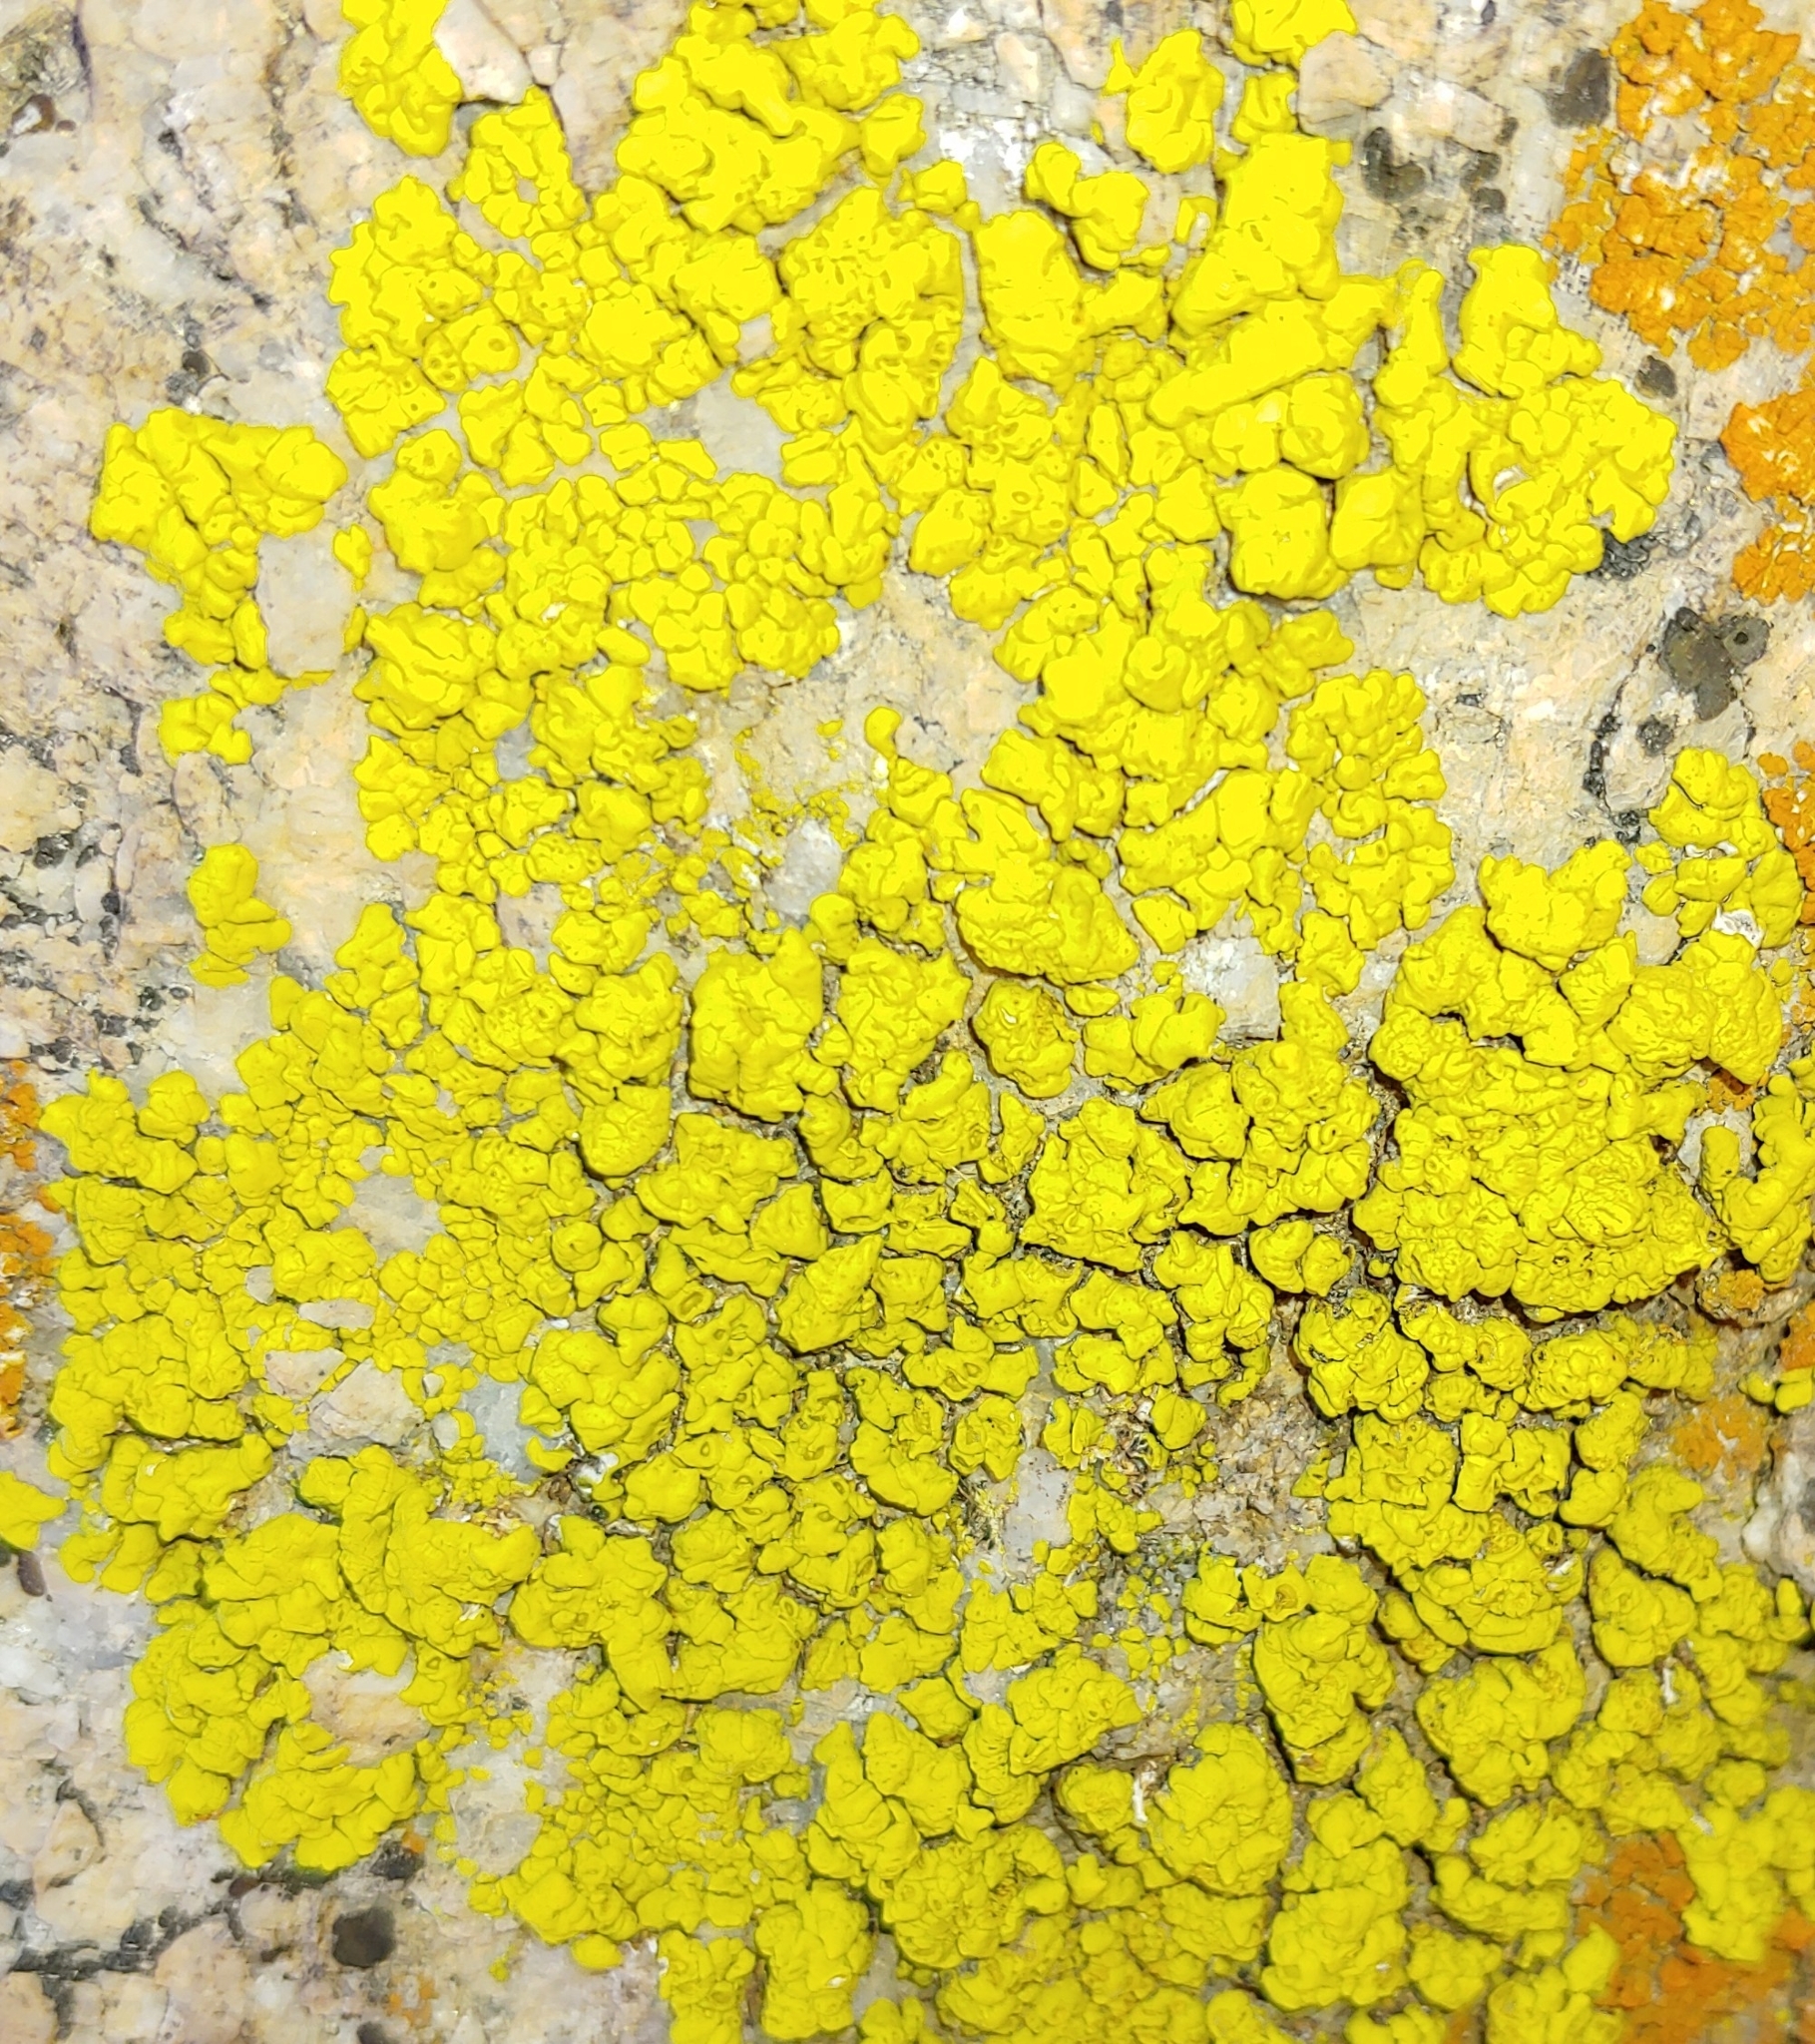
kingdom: Fungi
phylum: Ascomycota
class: Lecanoromycetes
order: Acarosporales
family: Acarosporaceae
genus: Acarospora
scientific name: Acarospora socialis
